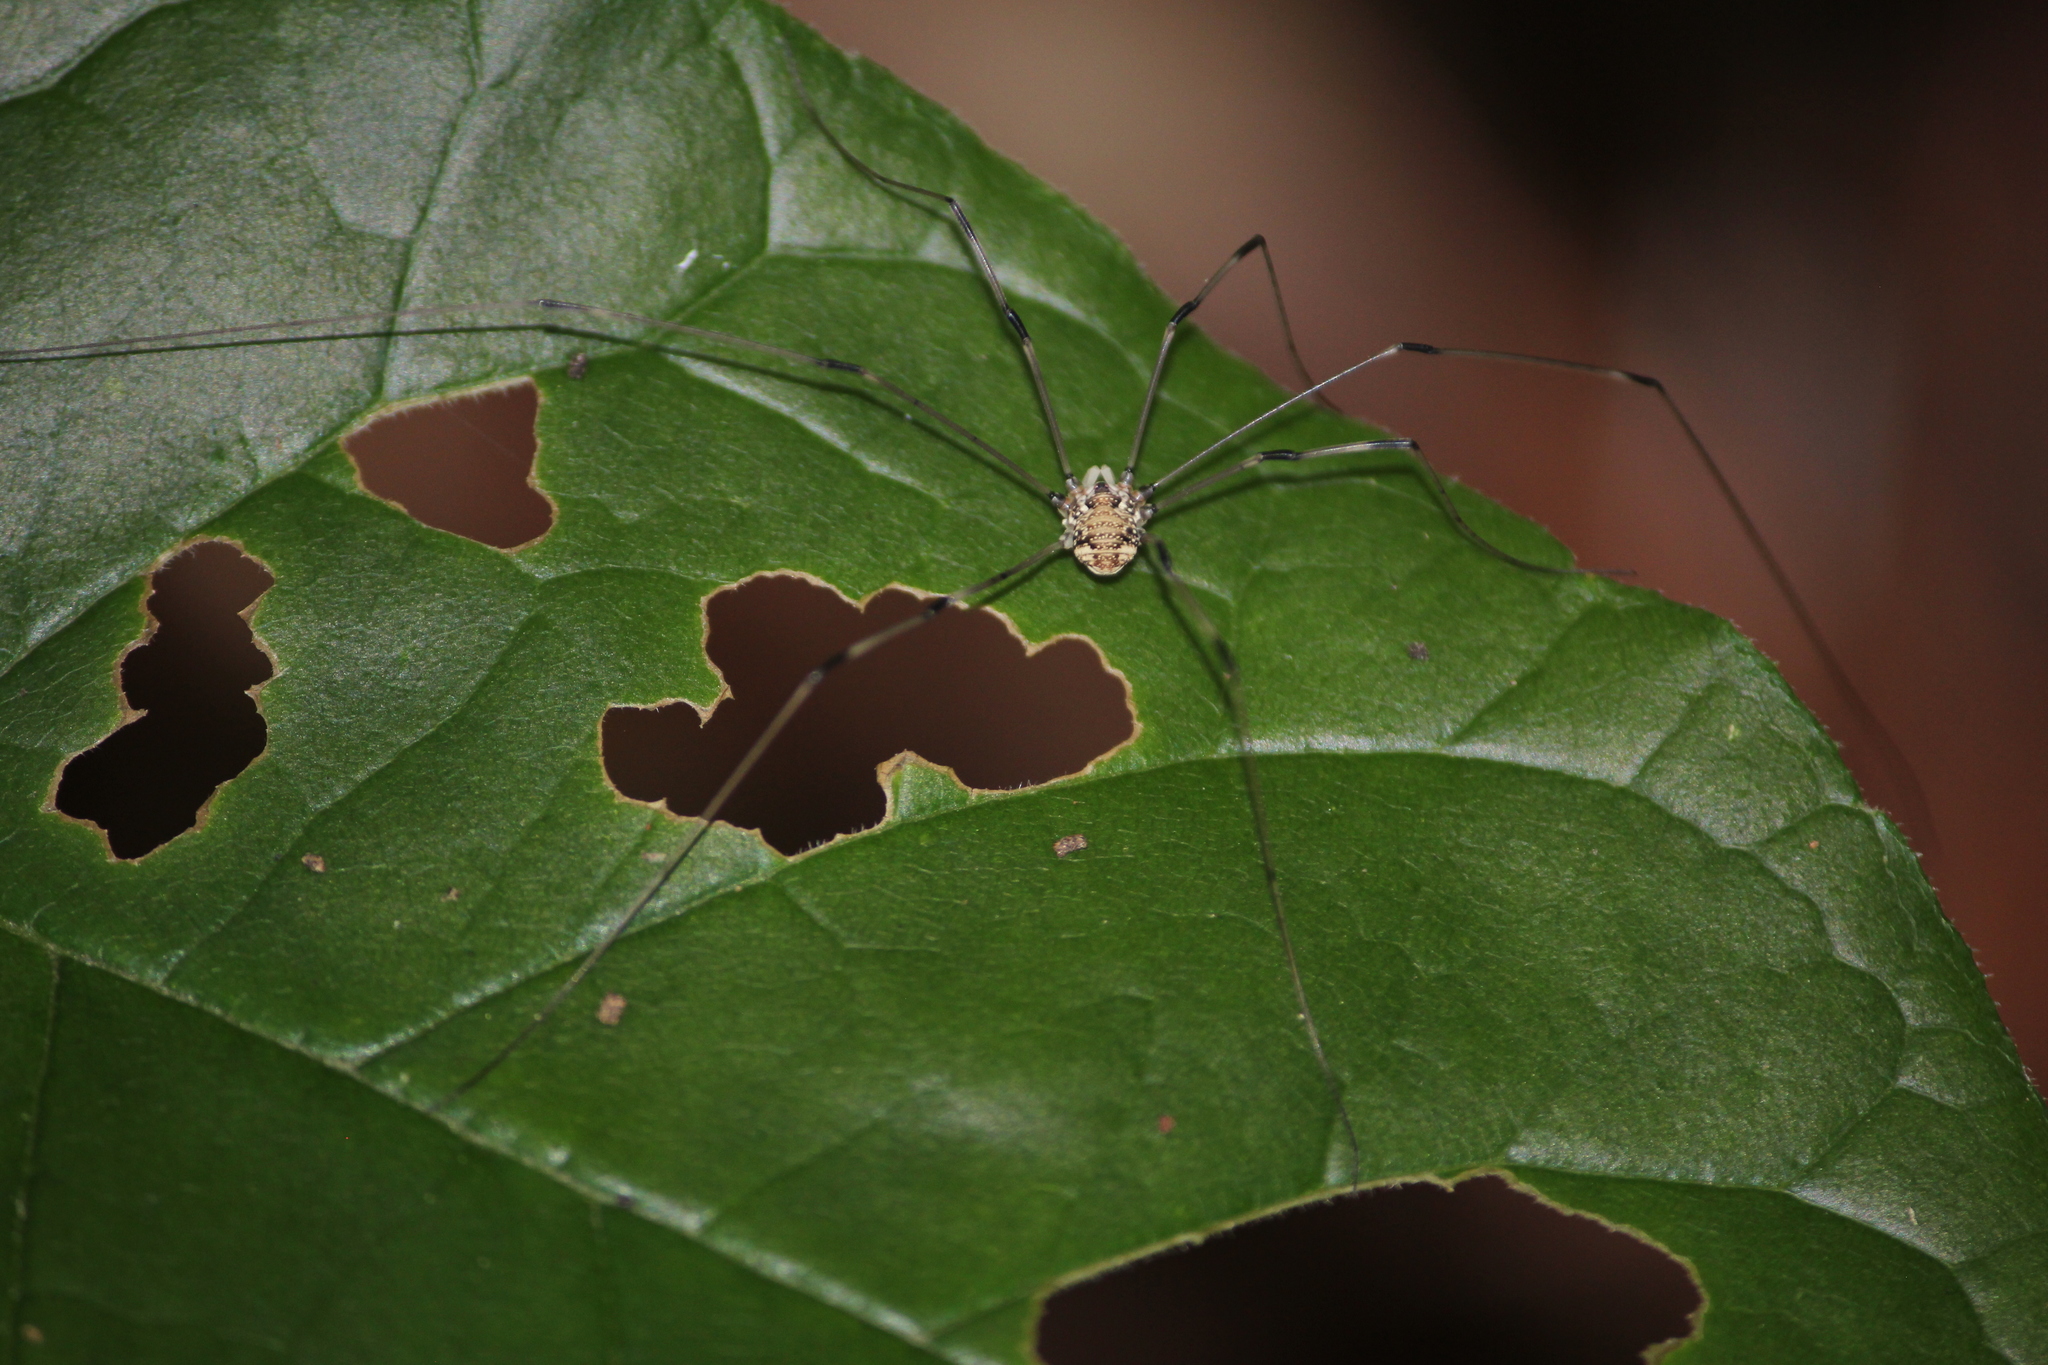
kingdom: Animalia
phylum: Arthropoda
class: Arachnida
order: Opiliones
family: Sclerosomatidae
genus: Leiobunum
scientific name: Leiobunum vittatum
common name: Eastern harvestman
